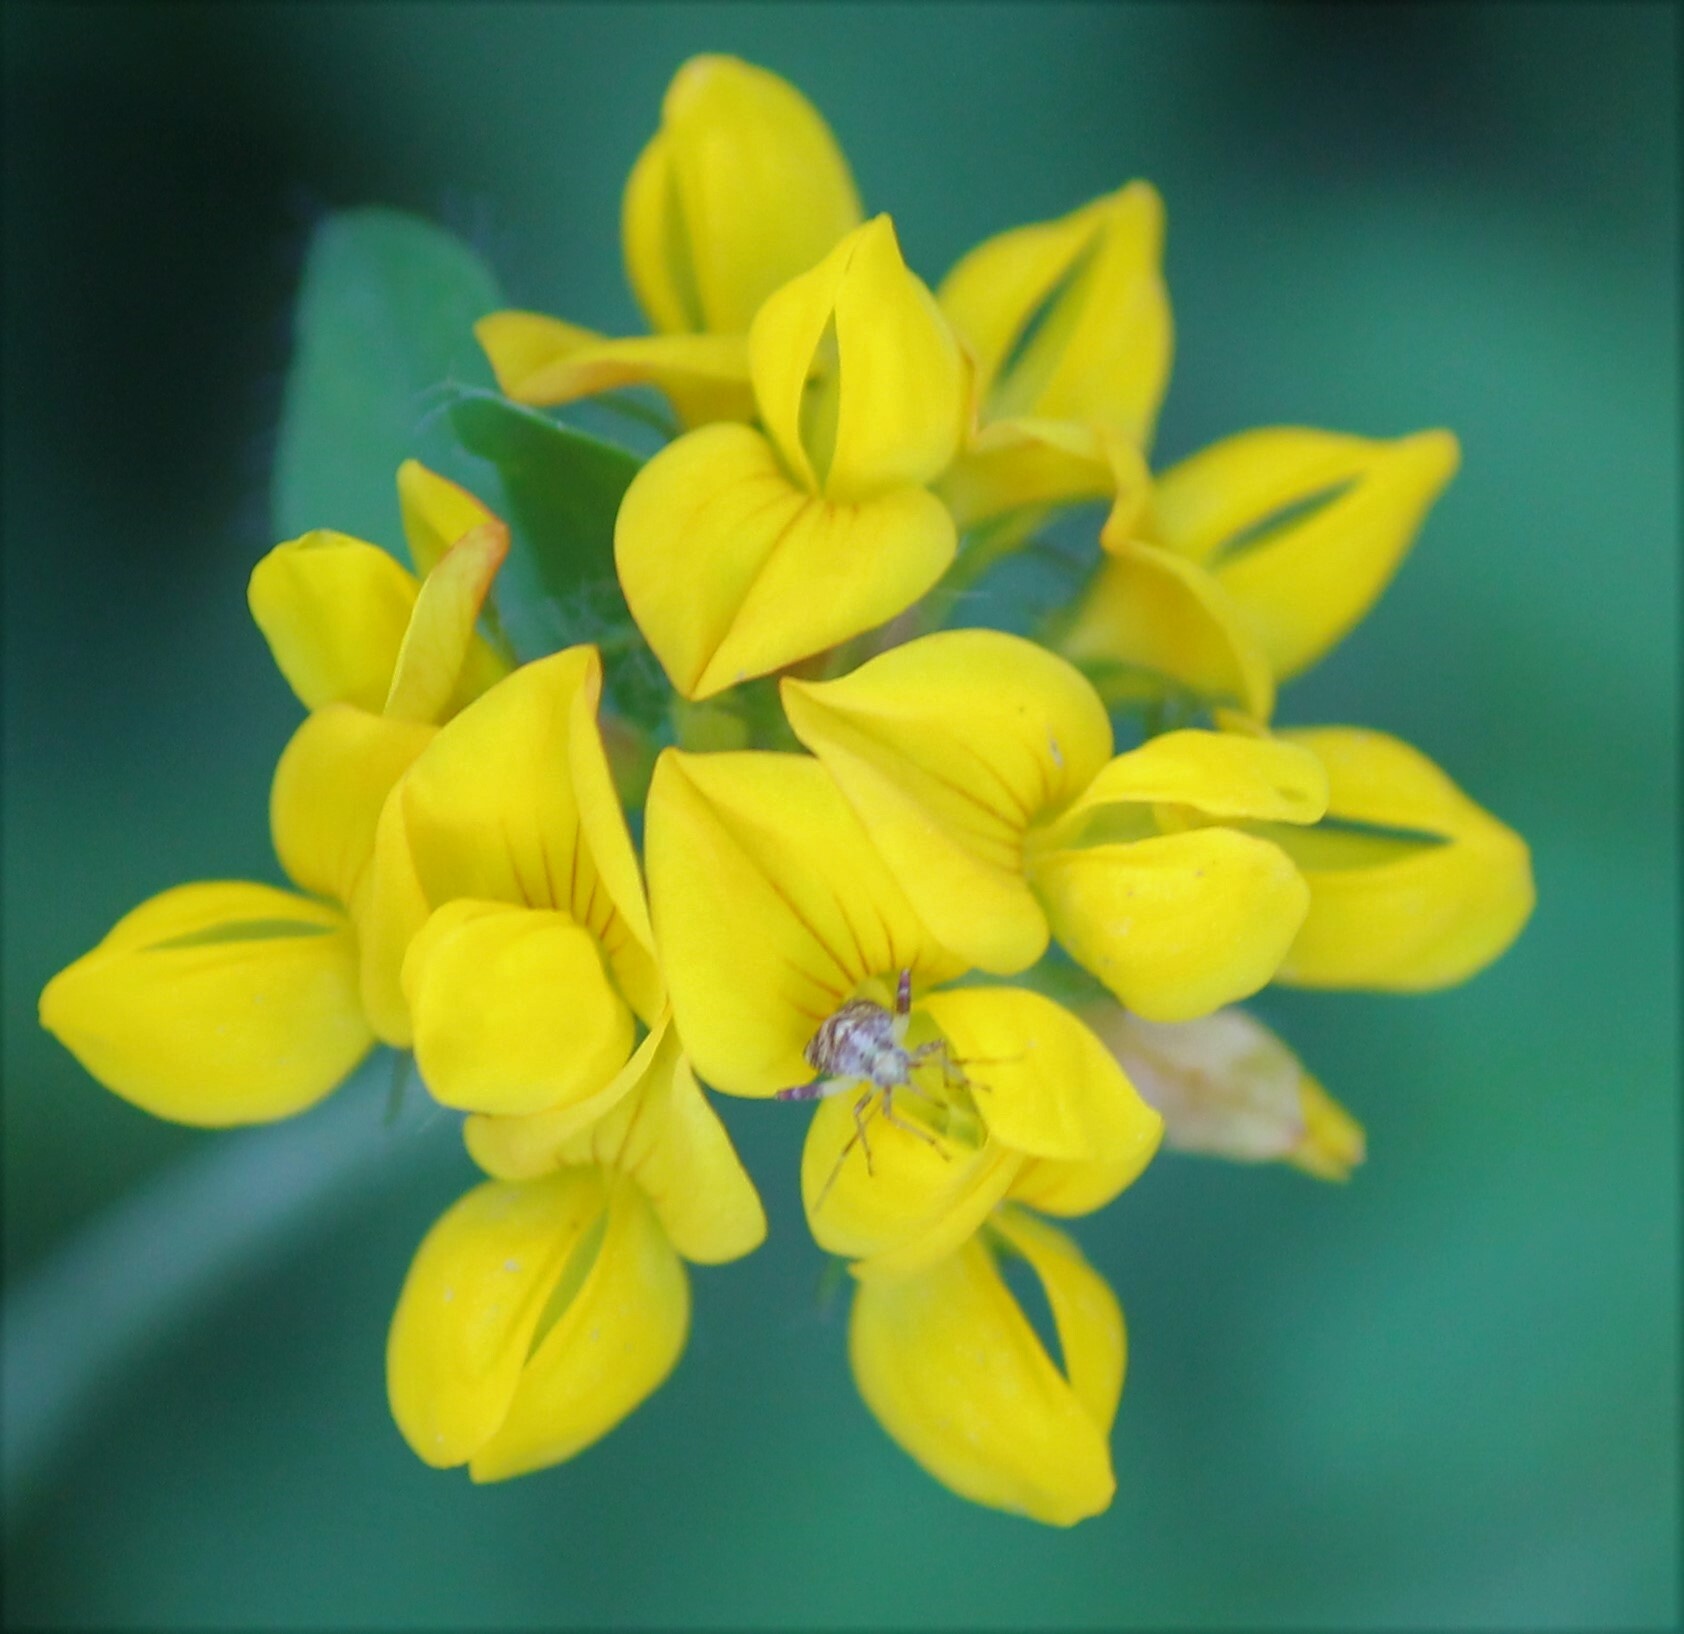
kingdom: Plantae
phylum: Tracheophyta
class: Magnoliopsida
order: Fabales
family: Fabaceae
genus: Lotus
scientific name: Lotus pedunculatus
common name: Greater birdsfoot-trefoil
